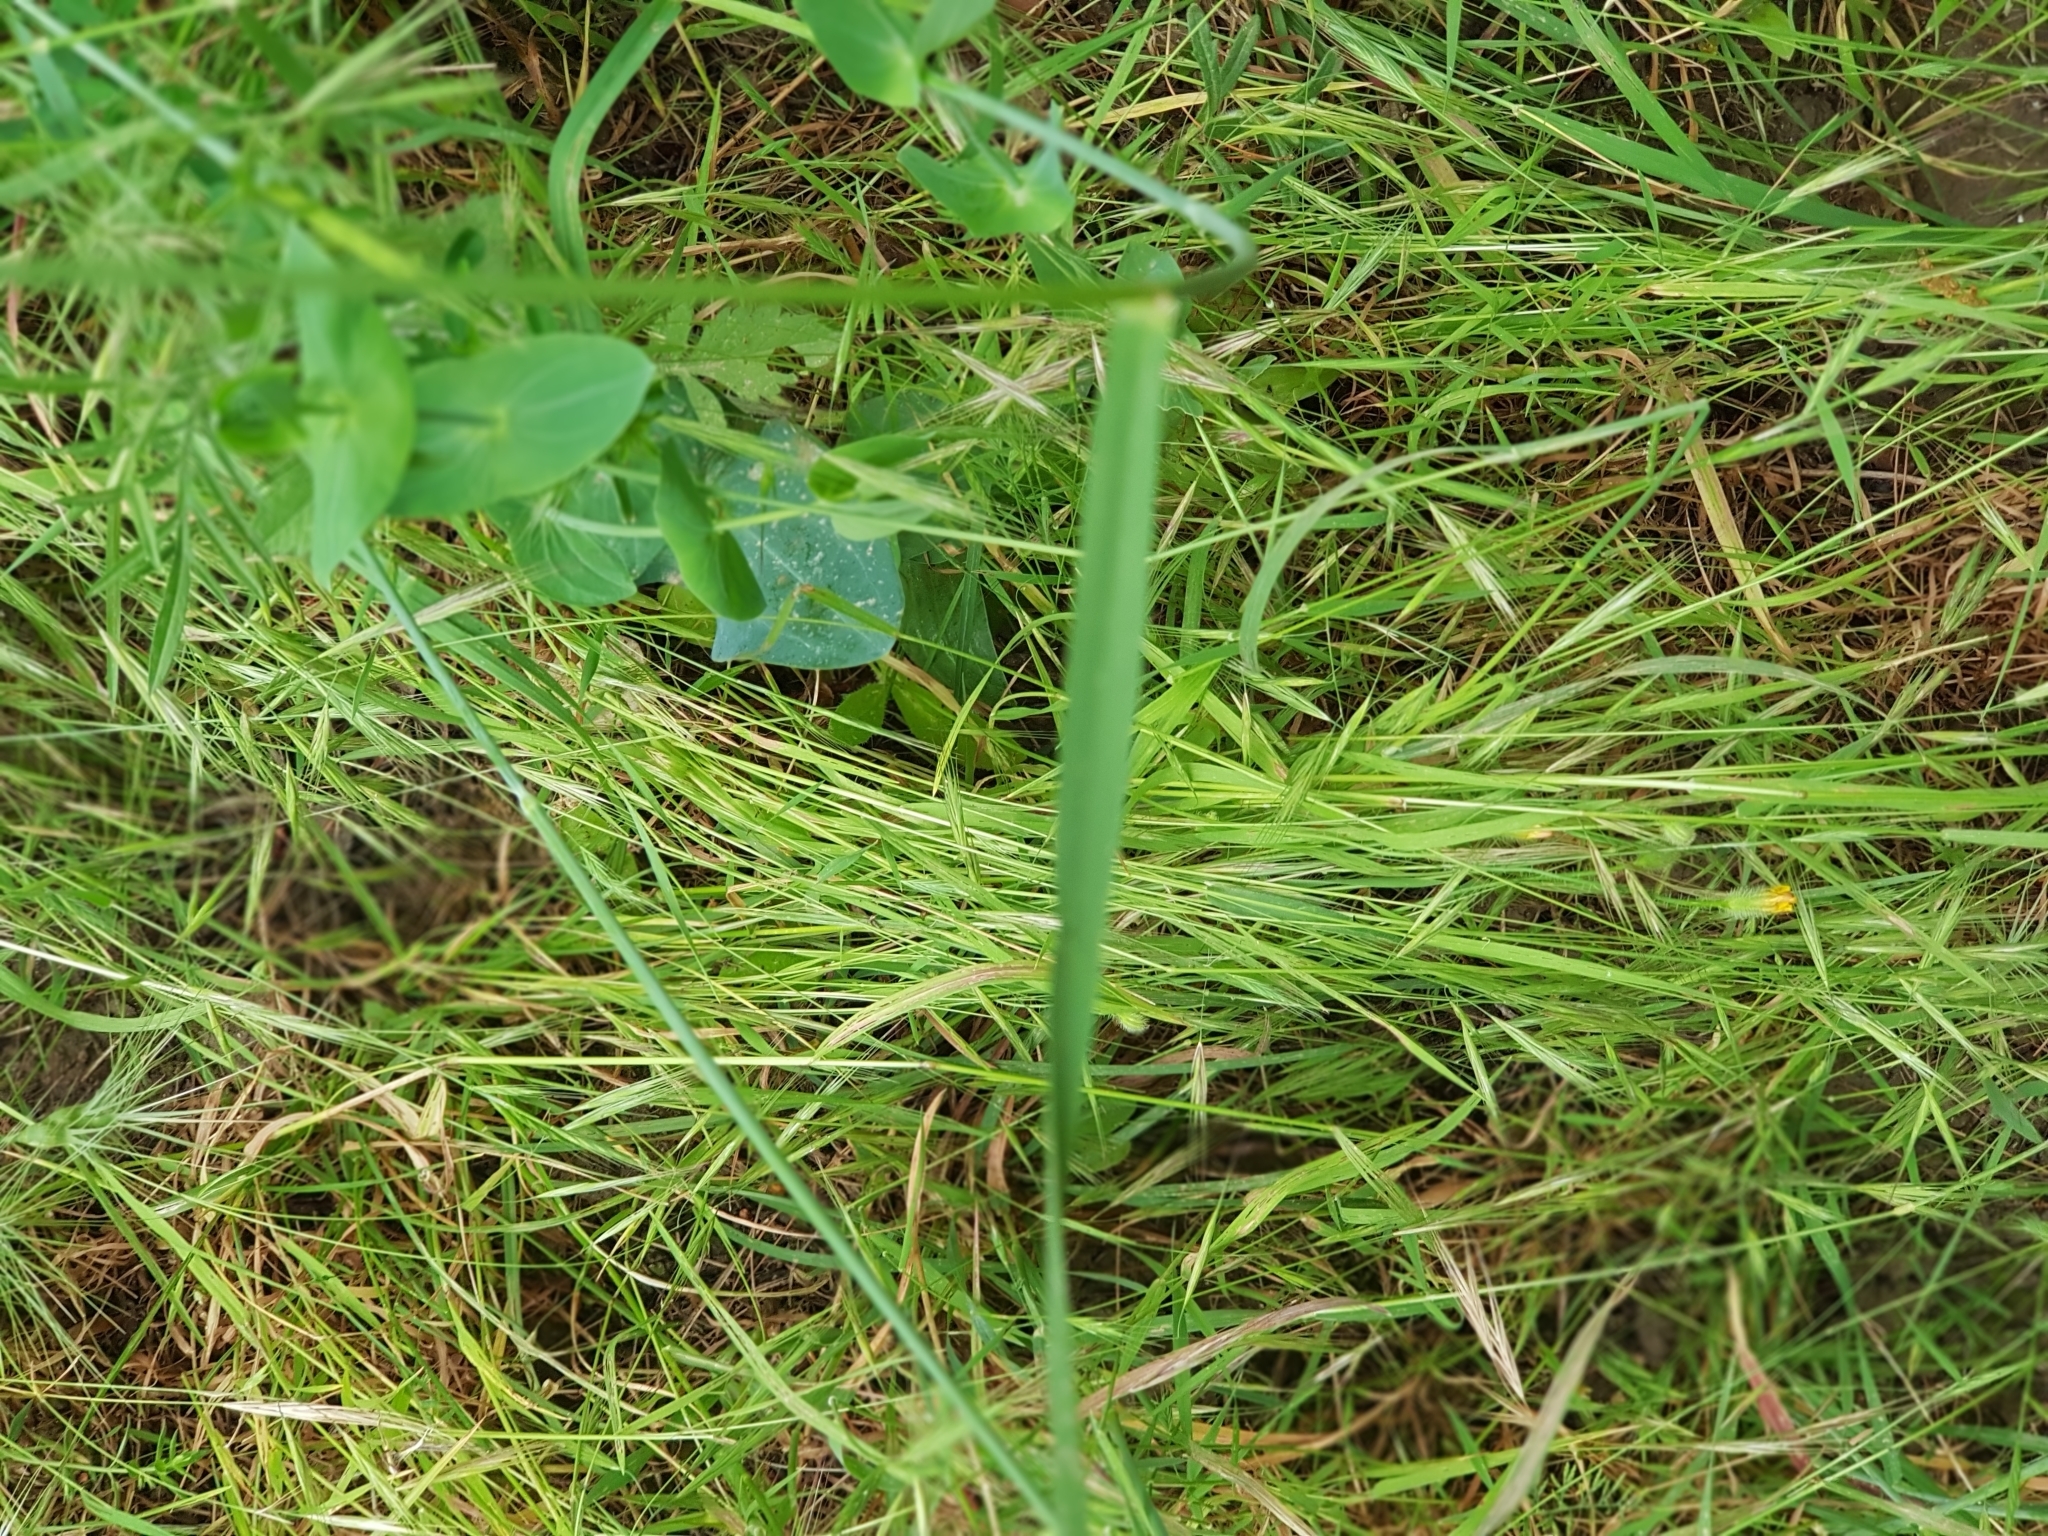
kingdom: Plantae
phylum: Tracheophyta
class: Liliopsida
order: Poales
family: Poaceae
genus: Hordeum
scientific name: Hordeum bulbosum
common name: Bulbous barley
